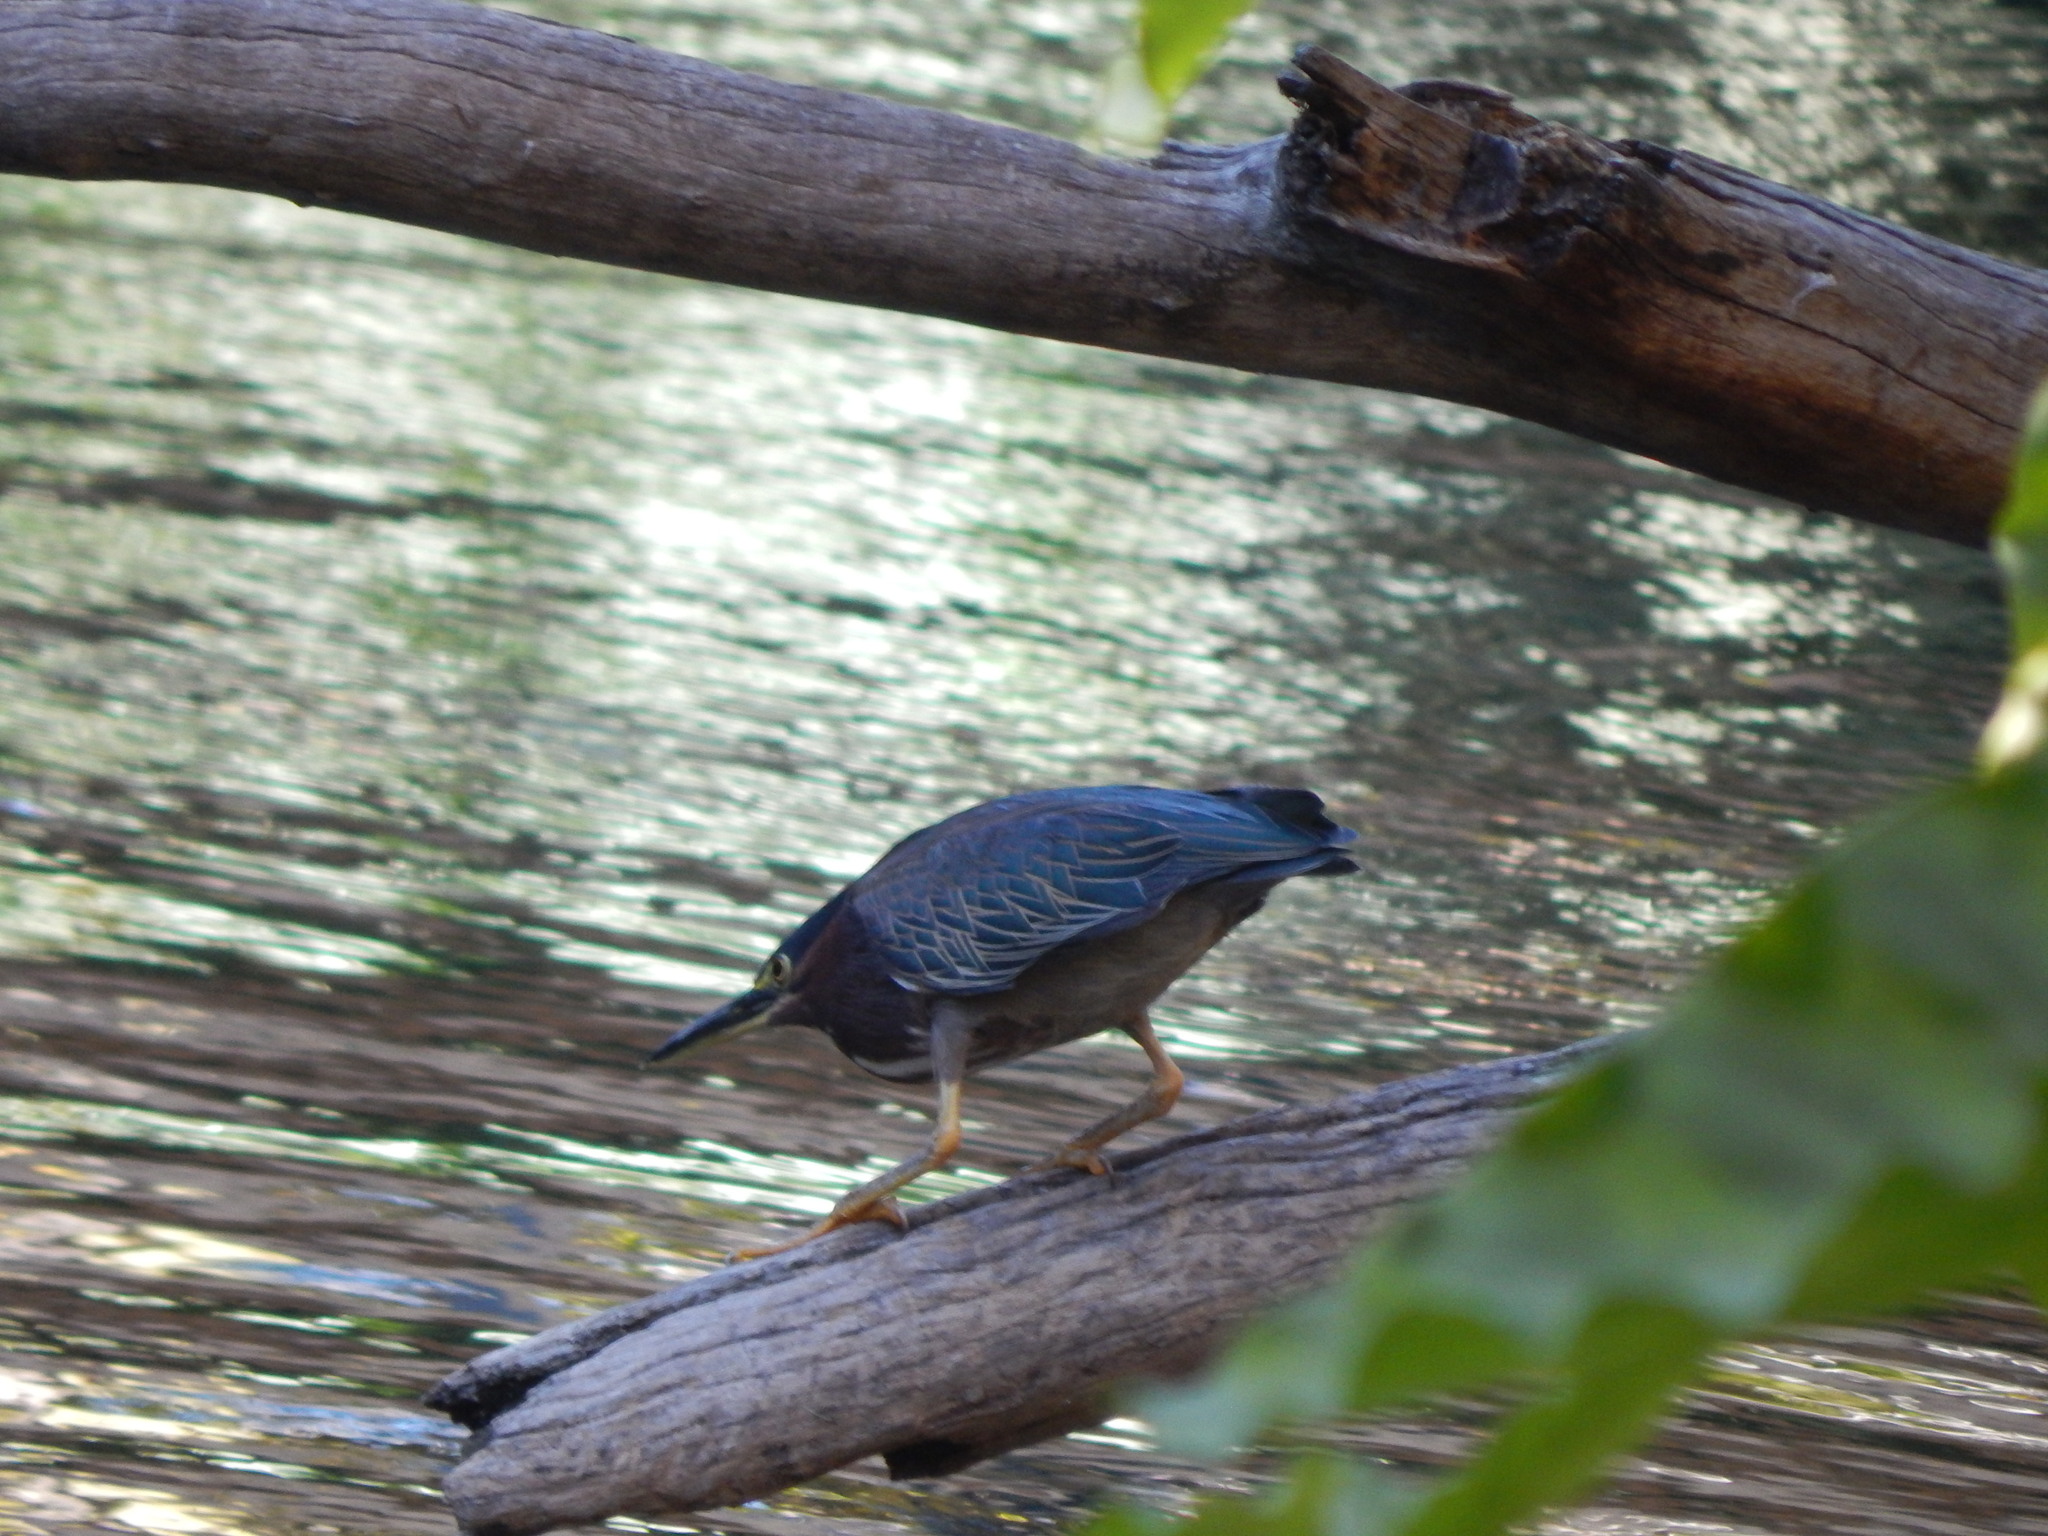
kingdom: Animalia
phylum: Chordata
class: Aves
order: Pelecaniformes
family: Ardeidae
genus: Butorides
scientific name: Butorides virescens
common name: Green heron
